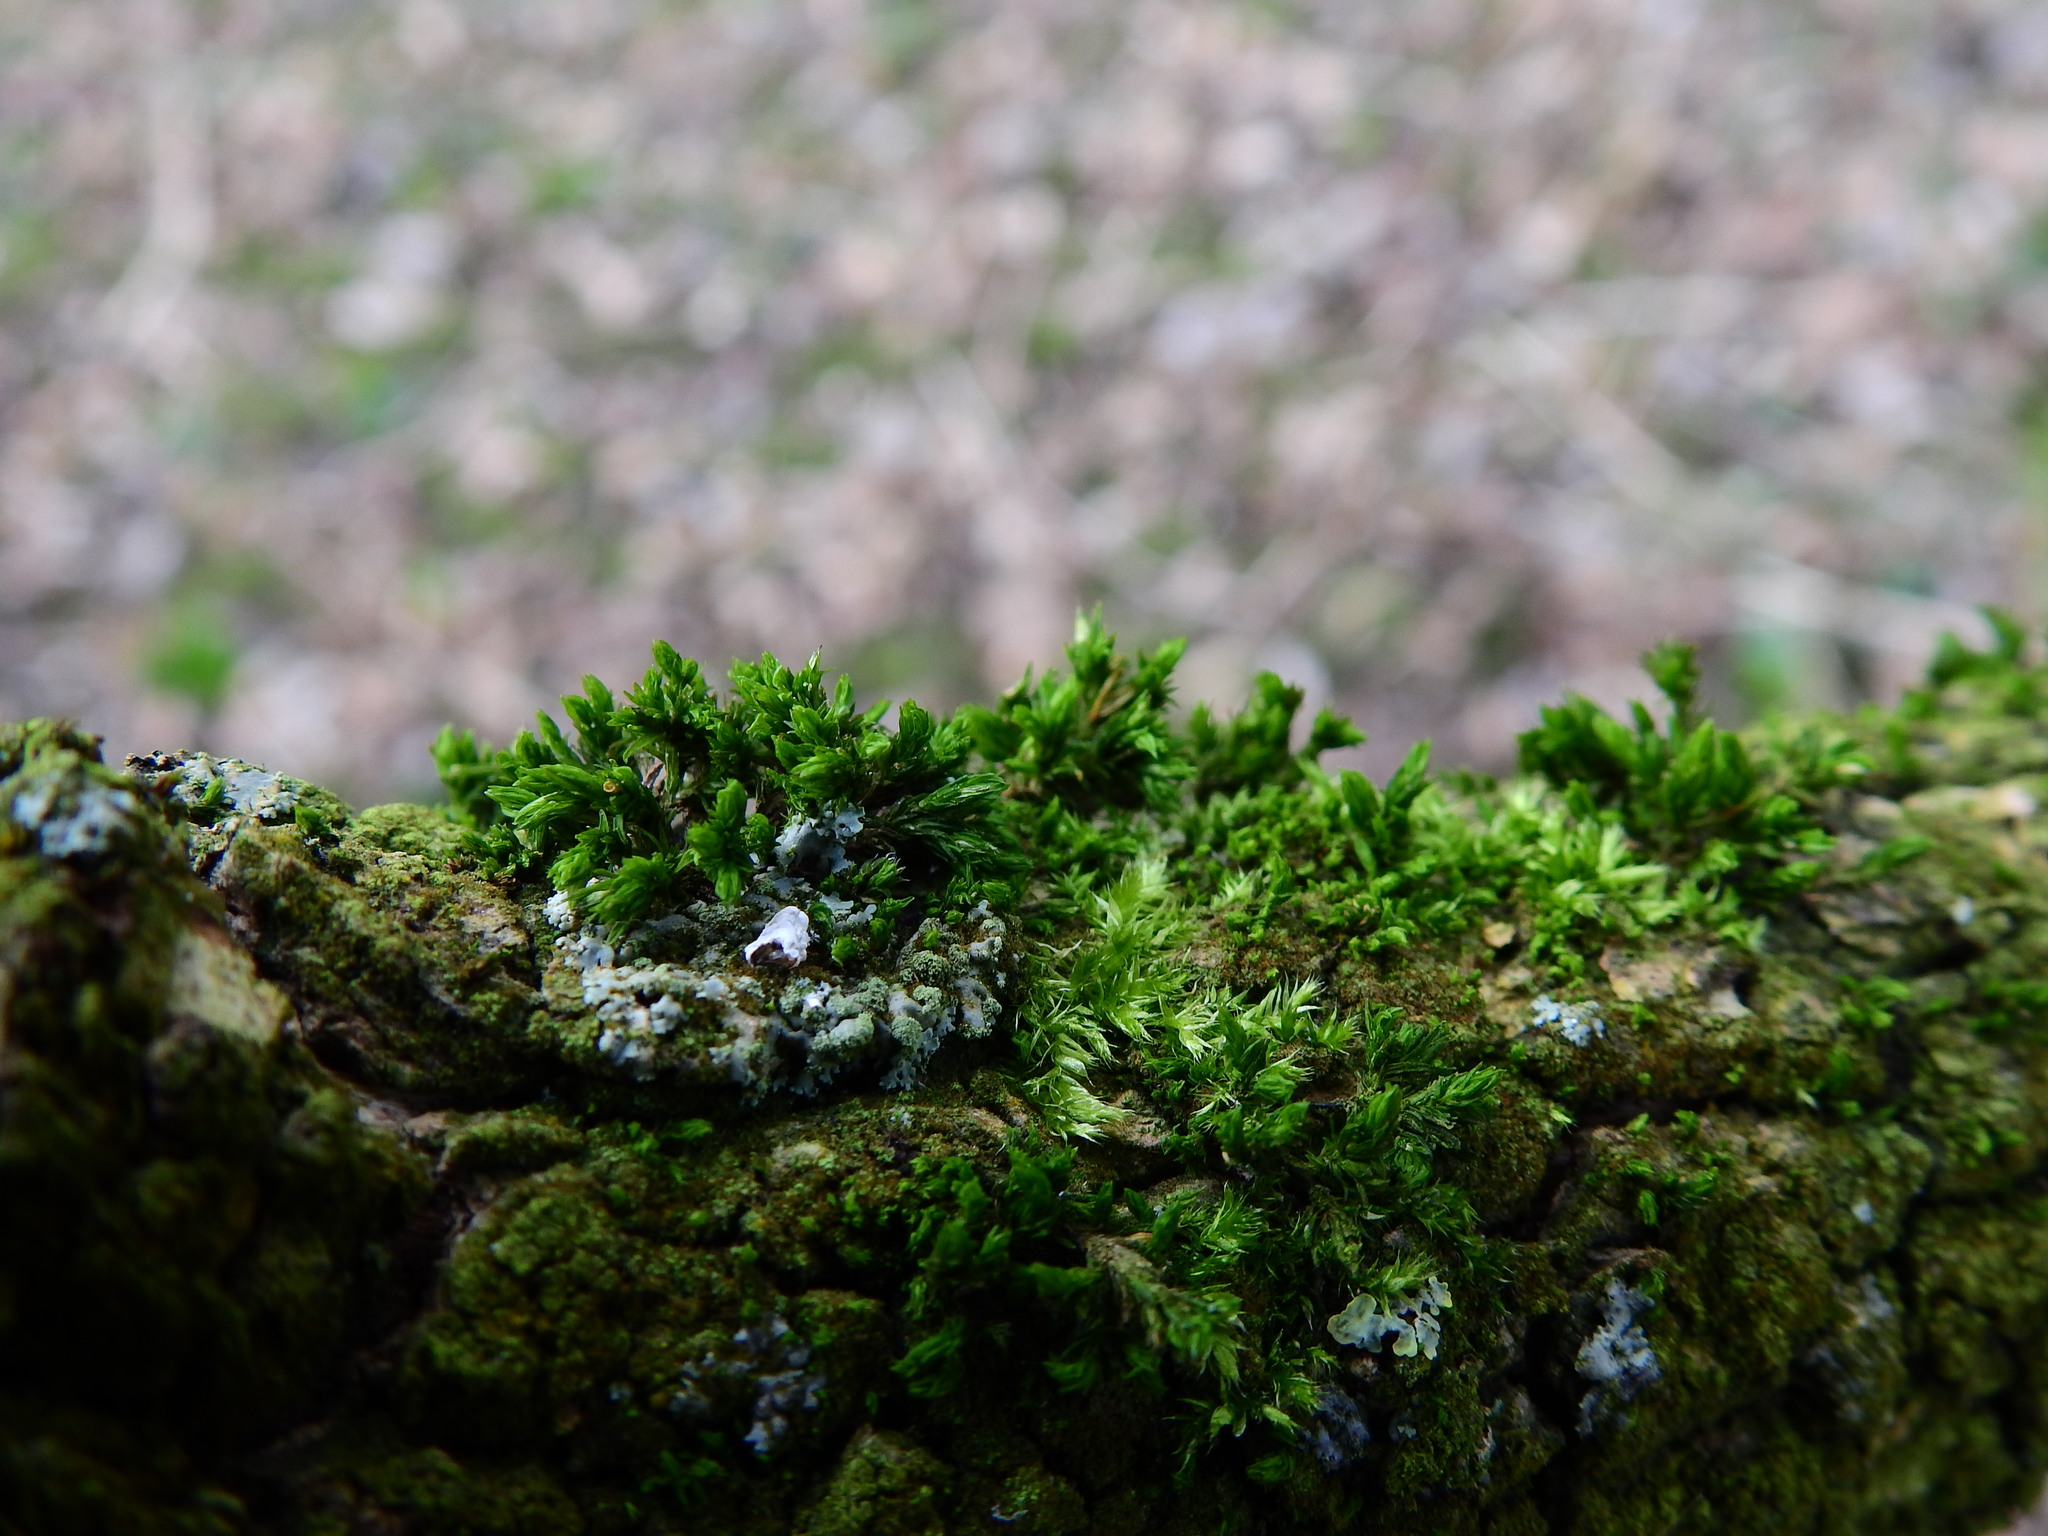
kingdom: Plantae
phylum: Bryophyta
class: Bryopsida
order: Orthotrichales
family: Orthotrichaceae
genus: Lewinskya
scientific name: Lewinskya affinis
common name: Wood bristle-moss
